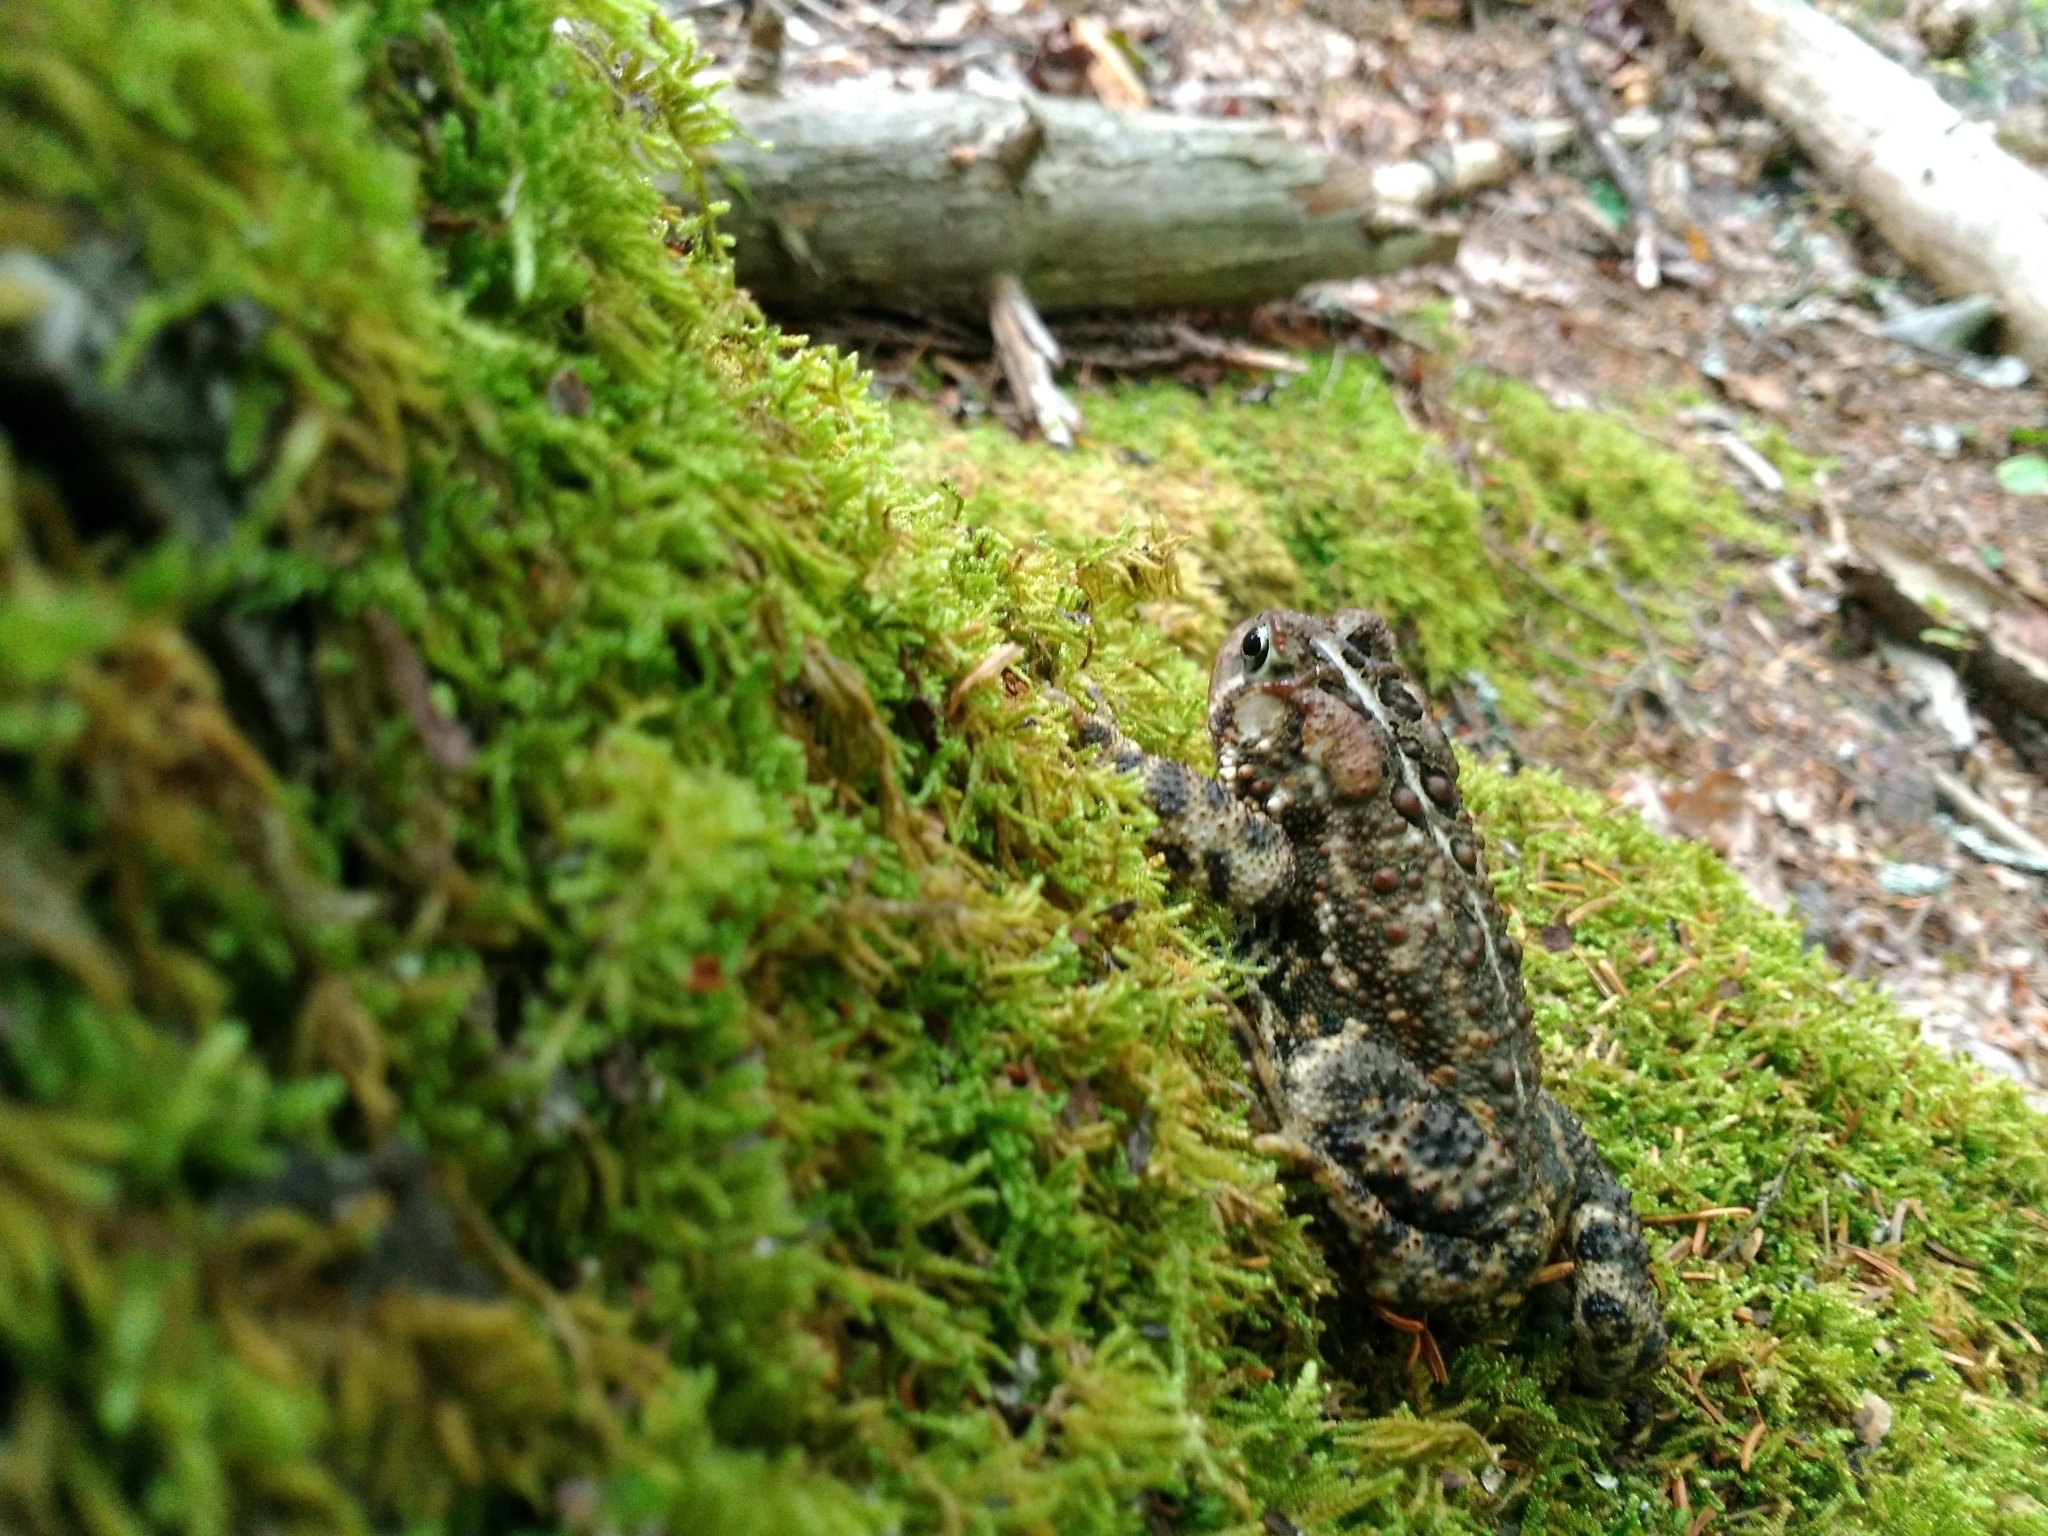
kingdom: Animalia
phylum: Chordata
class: Amphibia
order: Anura
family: Bufonidae
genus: Anaxyrus
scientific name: Anaxyrus americanus
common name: American toad
